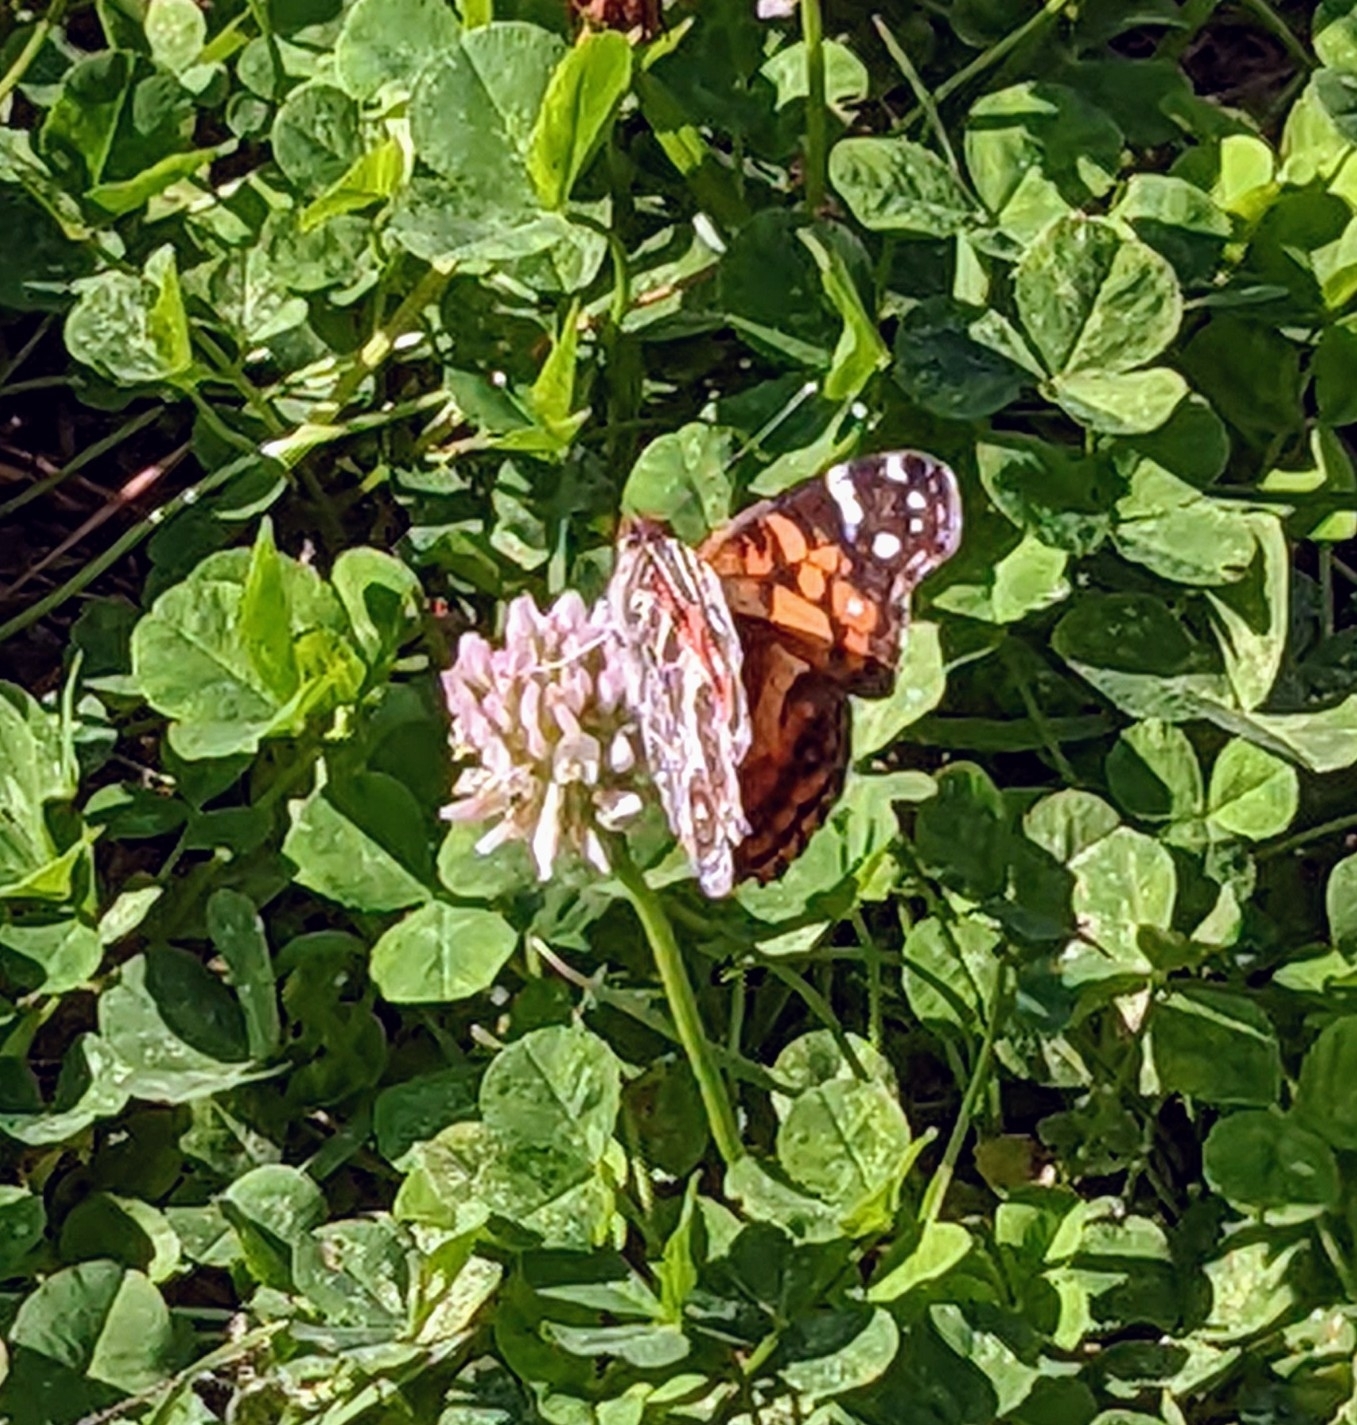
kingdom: Animalia
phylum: Arthropoda
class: Insecta
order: Lepidoptera
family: Nymphalidae
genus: Vanessa
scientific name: Vanessa virginiensis
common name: American lady
